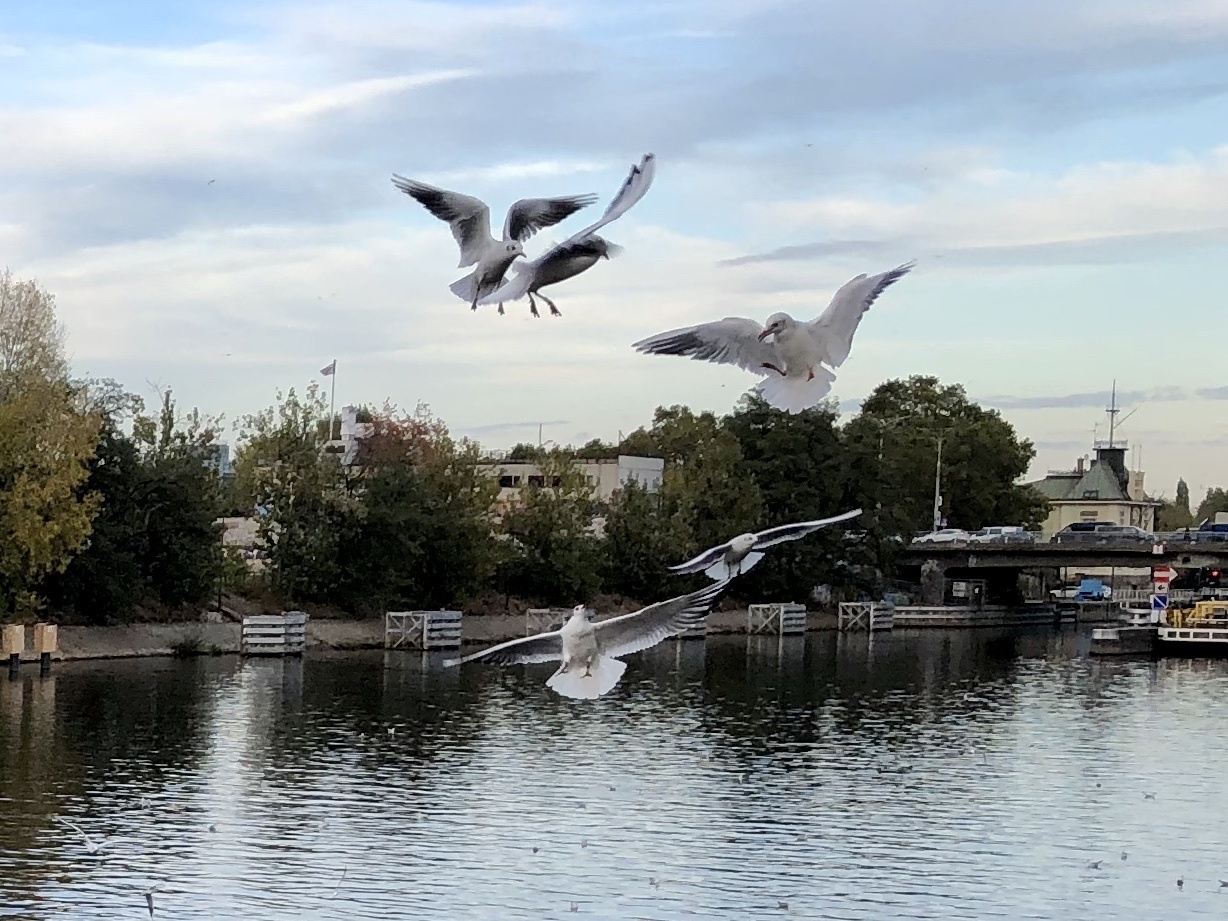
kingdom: Animalia
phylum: Chordata
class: Aves
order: Charadriiformes
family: Laridae
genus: Chroicocephalus
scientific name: Chroicocephalus ridibundus
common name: Black-headed gull
